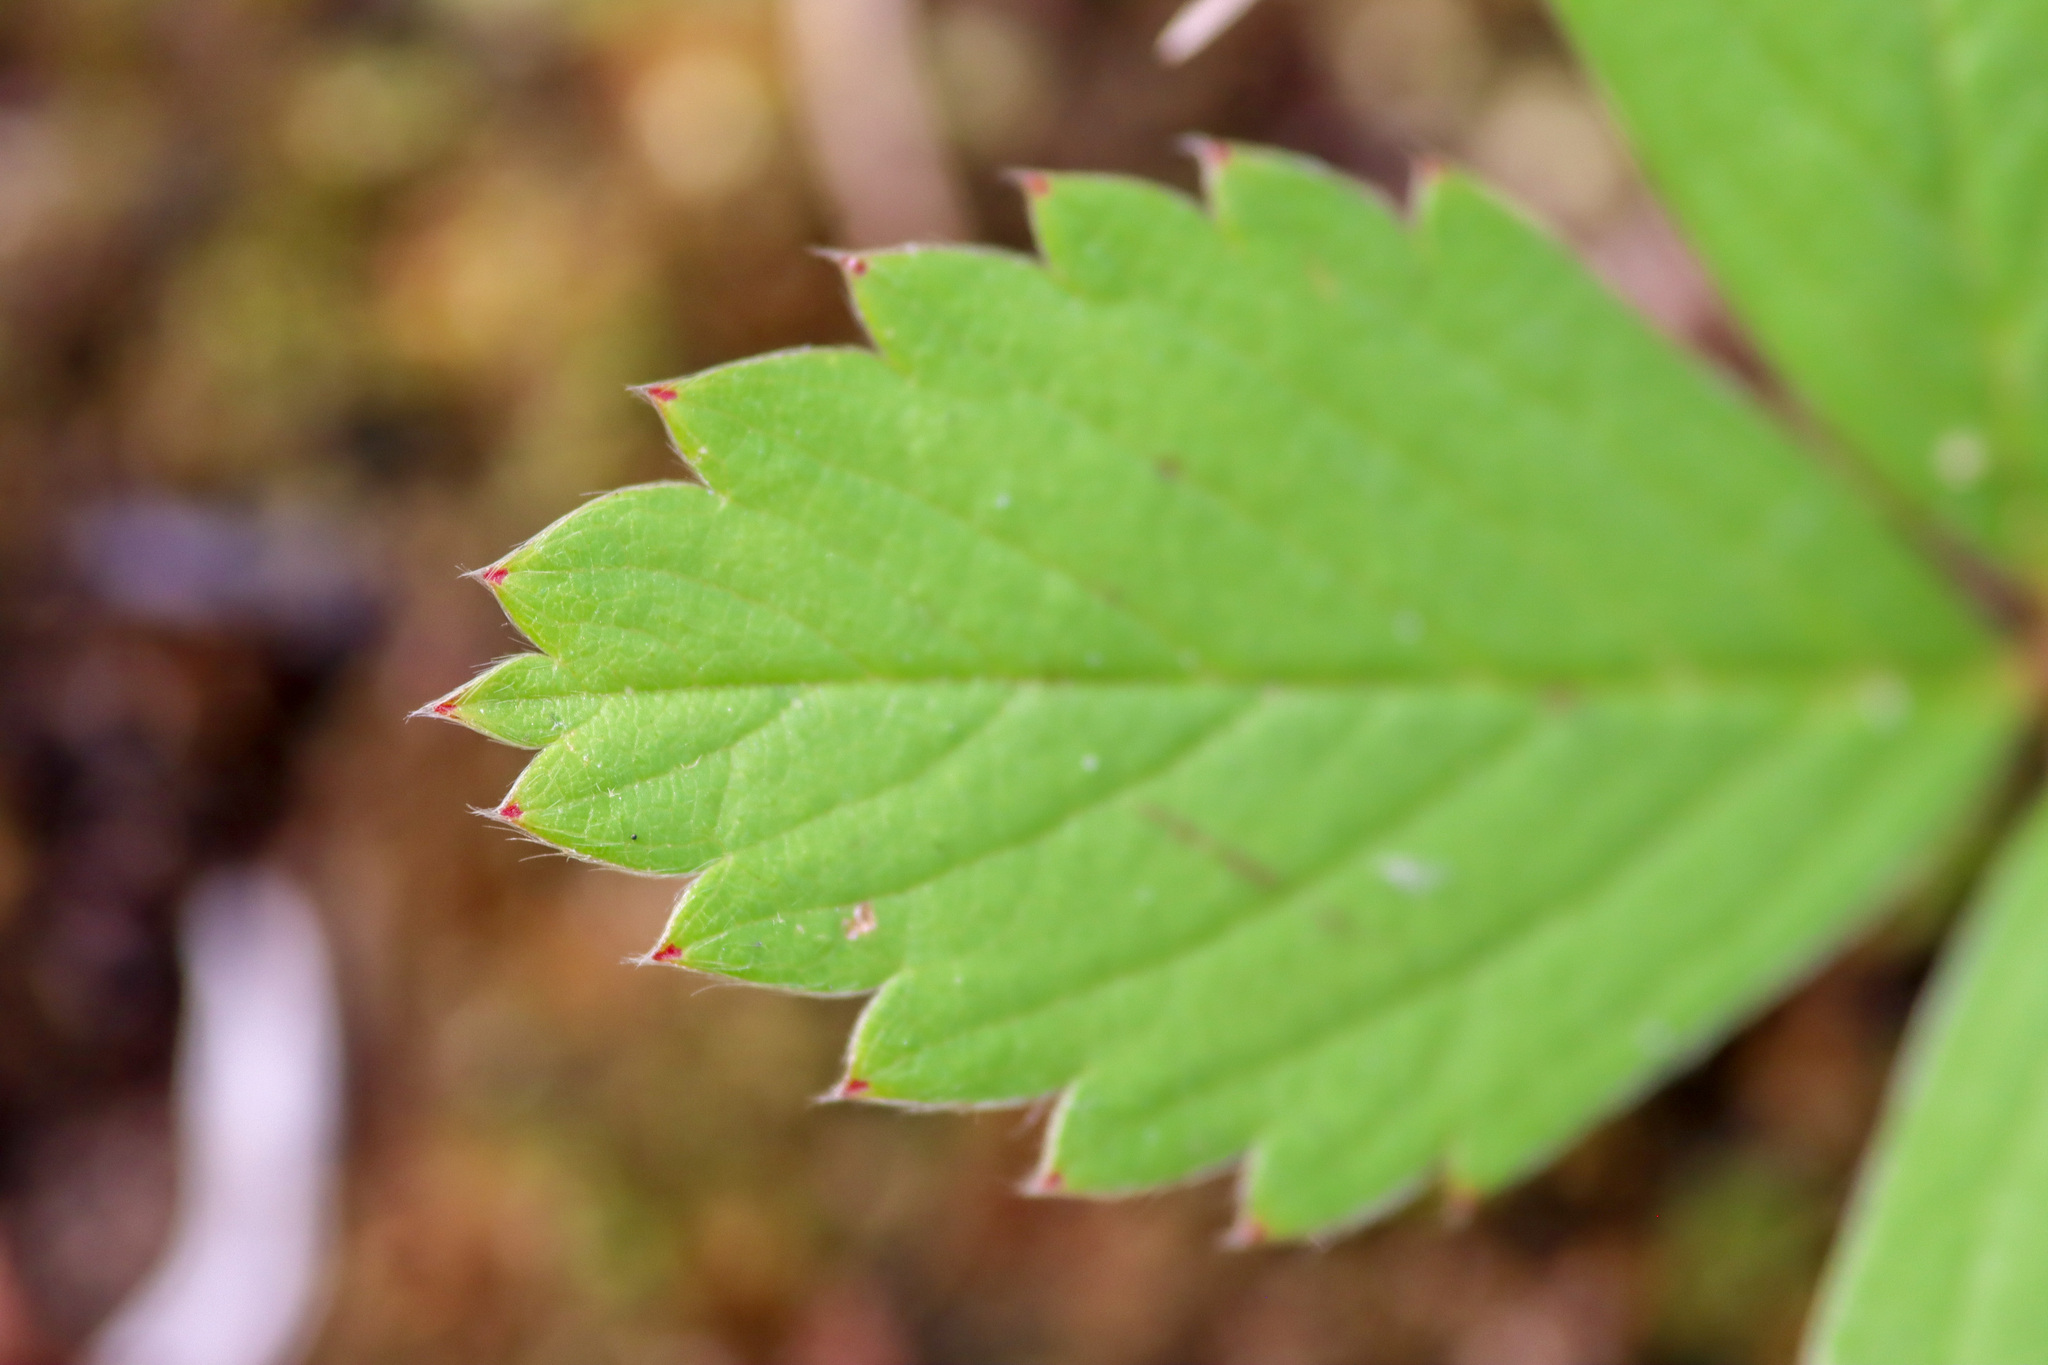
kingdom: Plantae
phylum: Tracheophyta
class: Magnoliopsida
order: Rosales
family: Rosaceae
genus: Fragaria
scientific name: Fragaria virginiana
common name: Thickleaved wild strawberry
